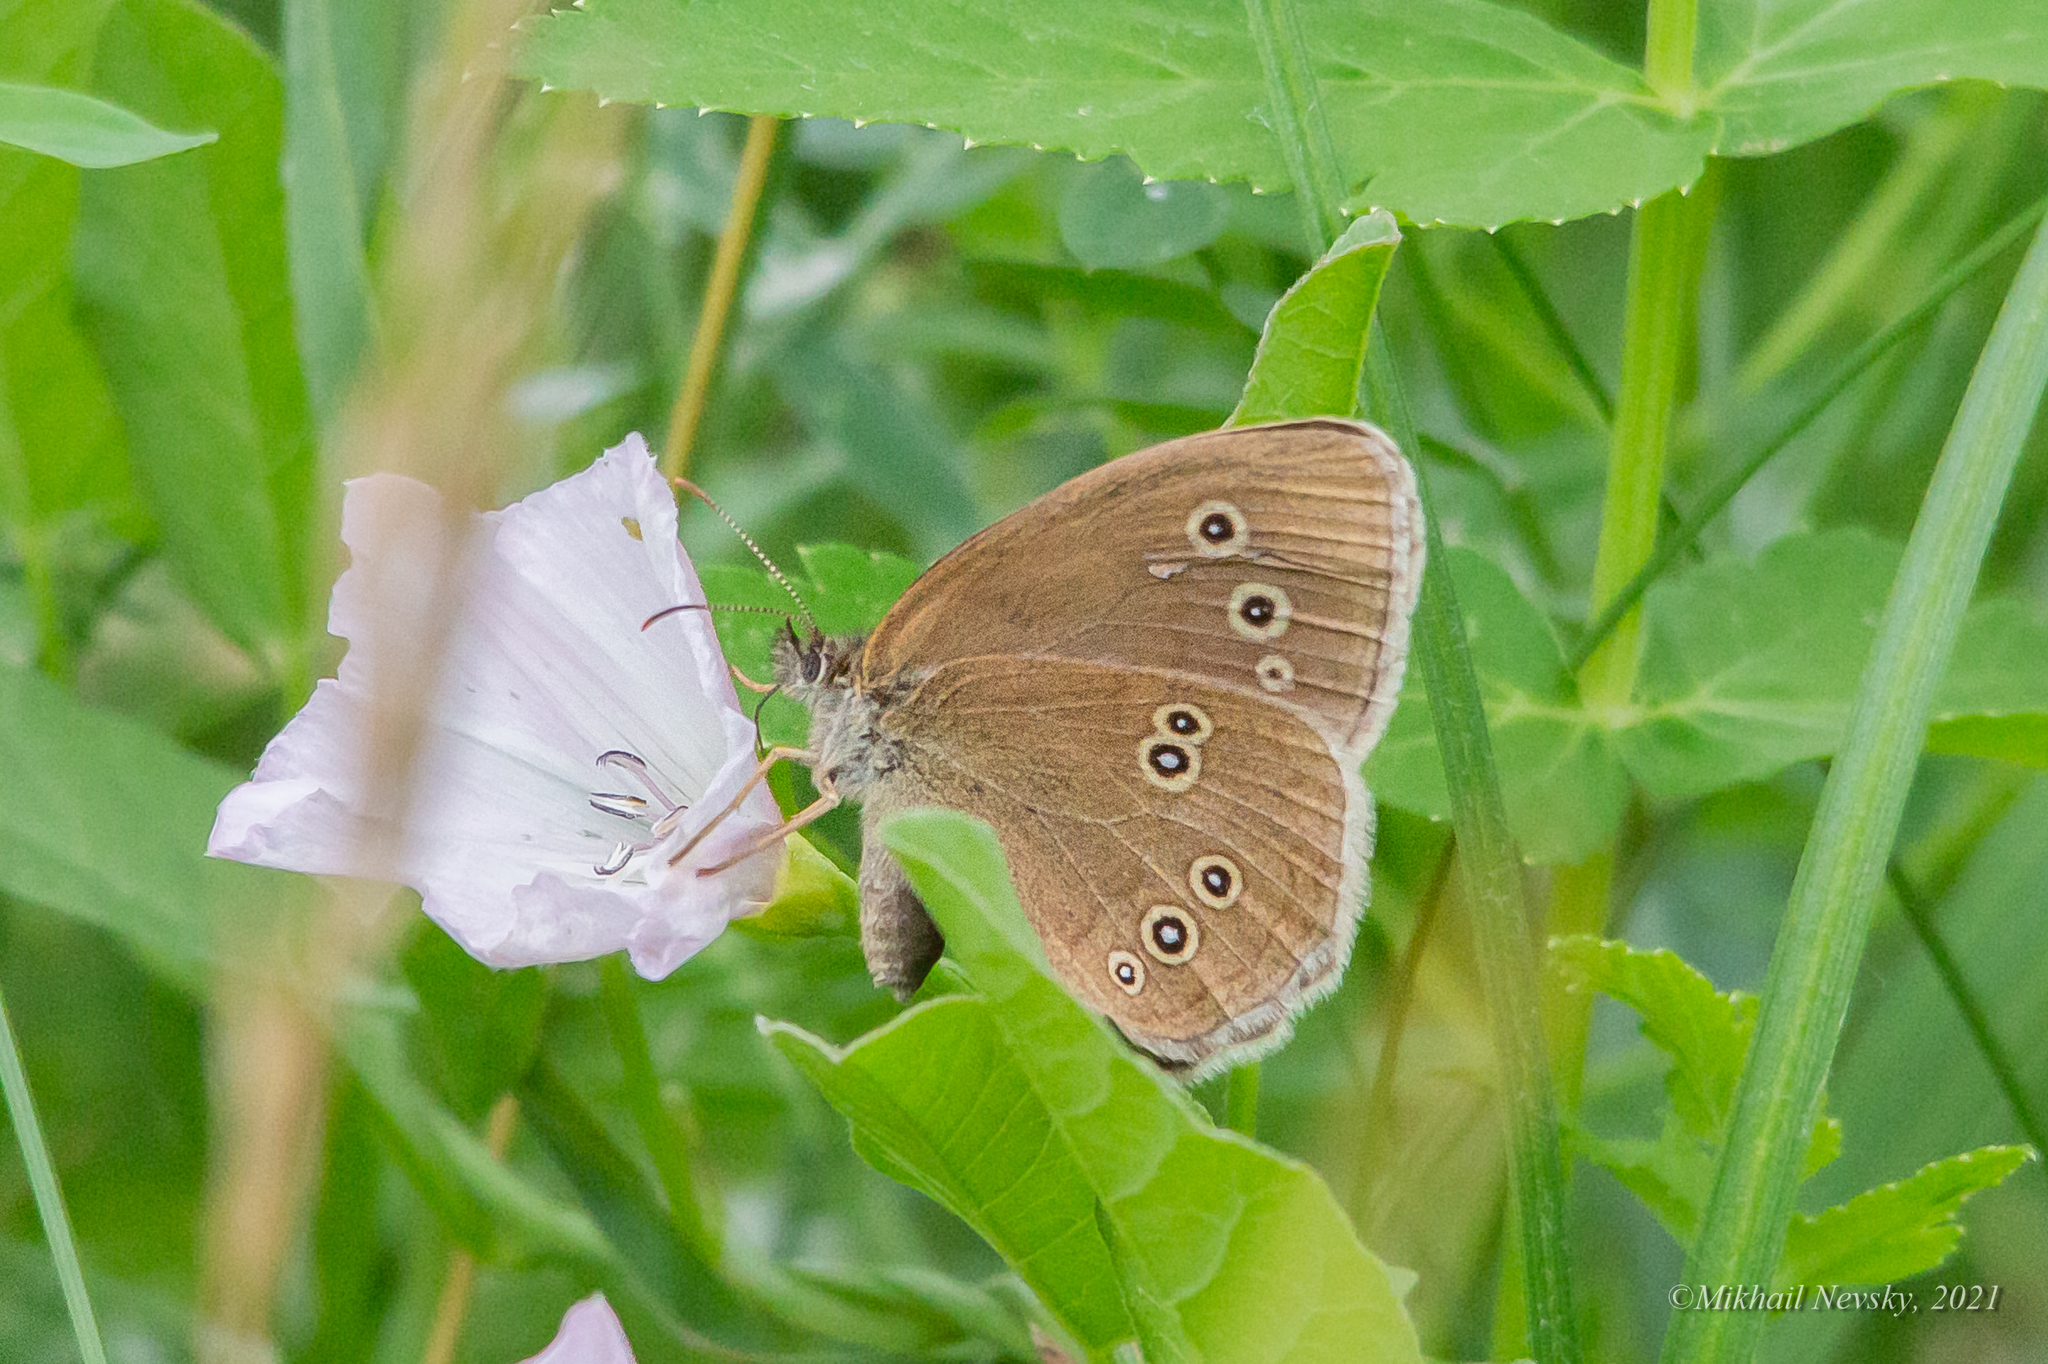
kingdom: Animalia
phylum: Arthropoda
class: Insecta
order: Lepidoptera
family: Nymphalidae
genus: Aphantopus
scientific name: Aphantopus hyperantus
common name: Ringlet
